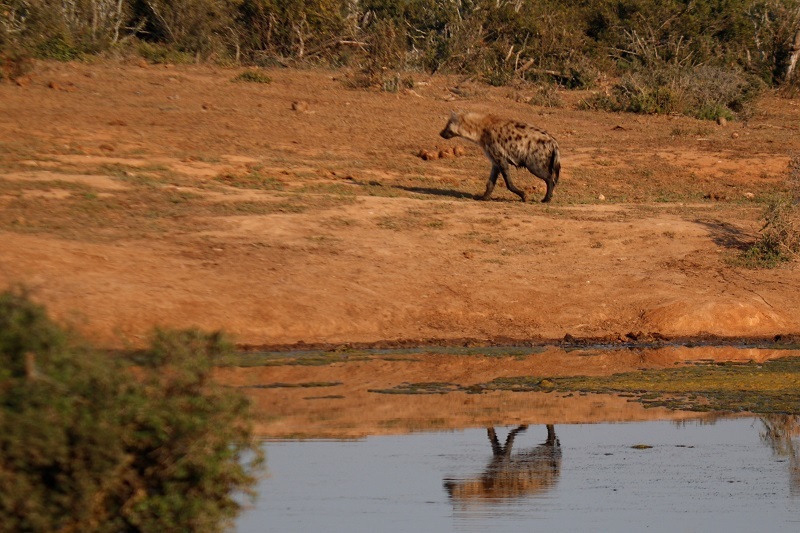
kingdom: Animalia
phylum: Chordata
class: Mammalia
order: Carnivora
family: Hyaenidae
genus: Crocuta
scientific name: Crocuta crocuta
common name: Spotted hyaena
